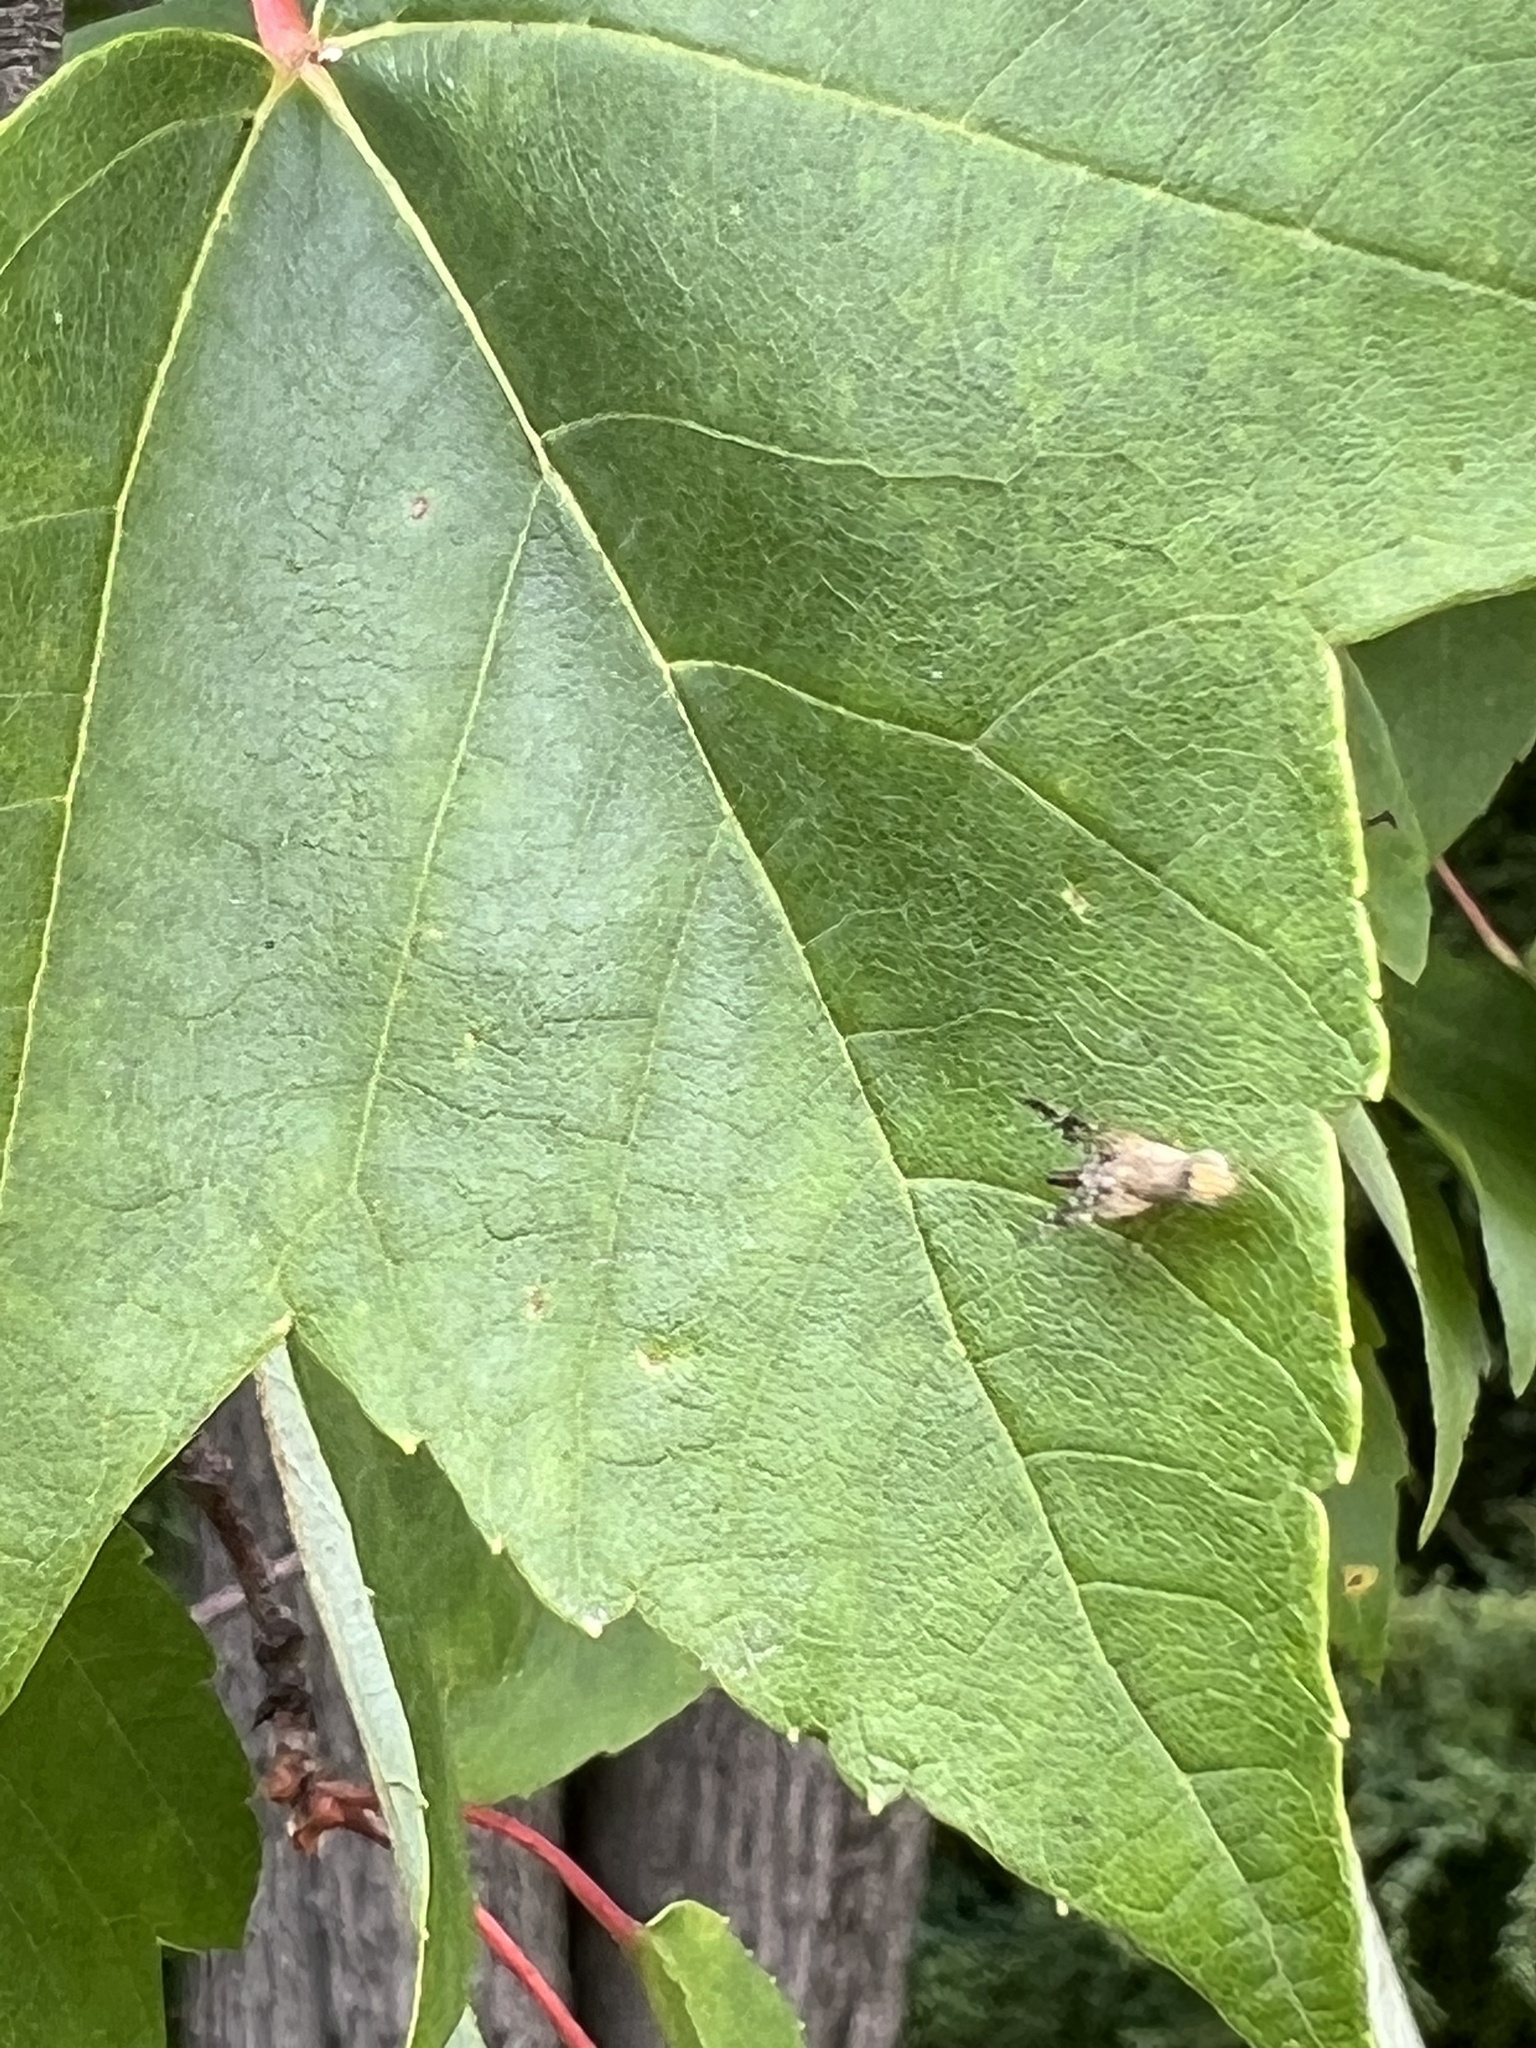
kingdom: Animalia
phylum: Arthropoda
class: Insecta
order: Diptera
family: Tephritidae
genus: Neotephritis
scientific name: Neotephritis finalis
